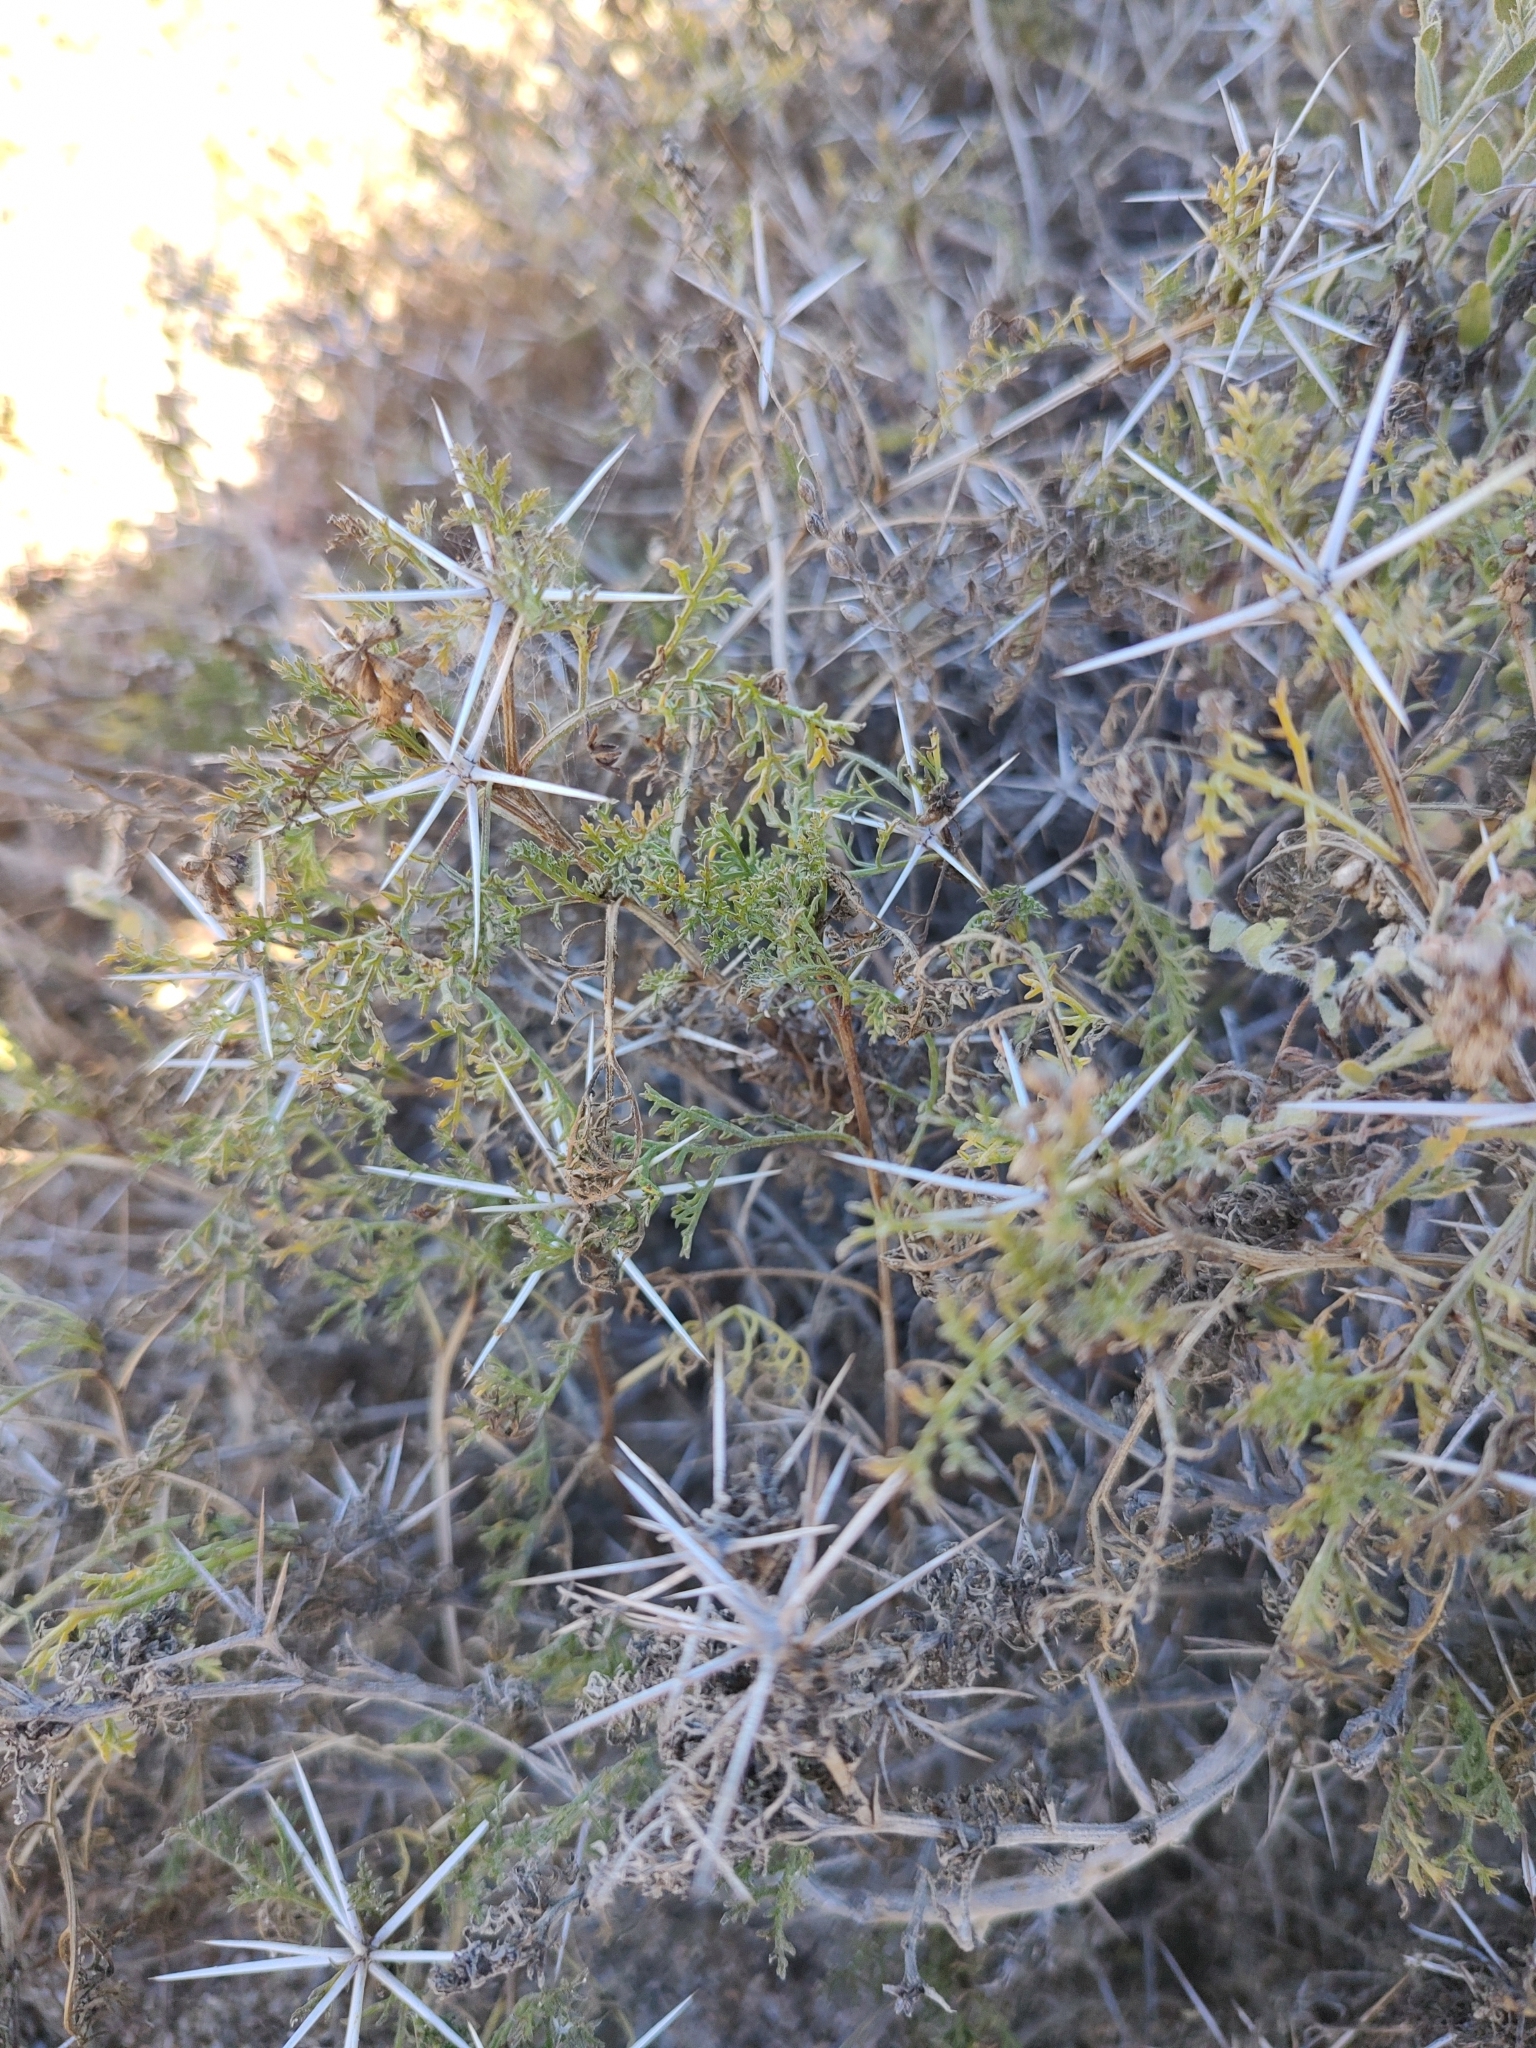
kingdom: Plantae
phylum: Tracheophyta
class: Magnoliopsida
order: Asterales
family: Asteraceae
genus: Ambrosia
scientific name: Ambrosia bryantii
